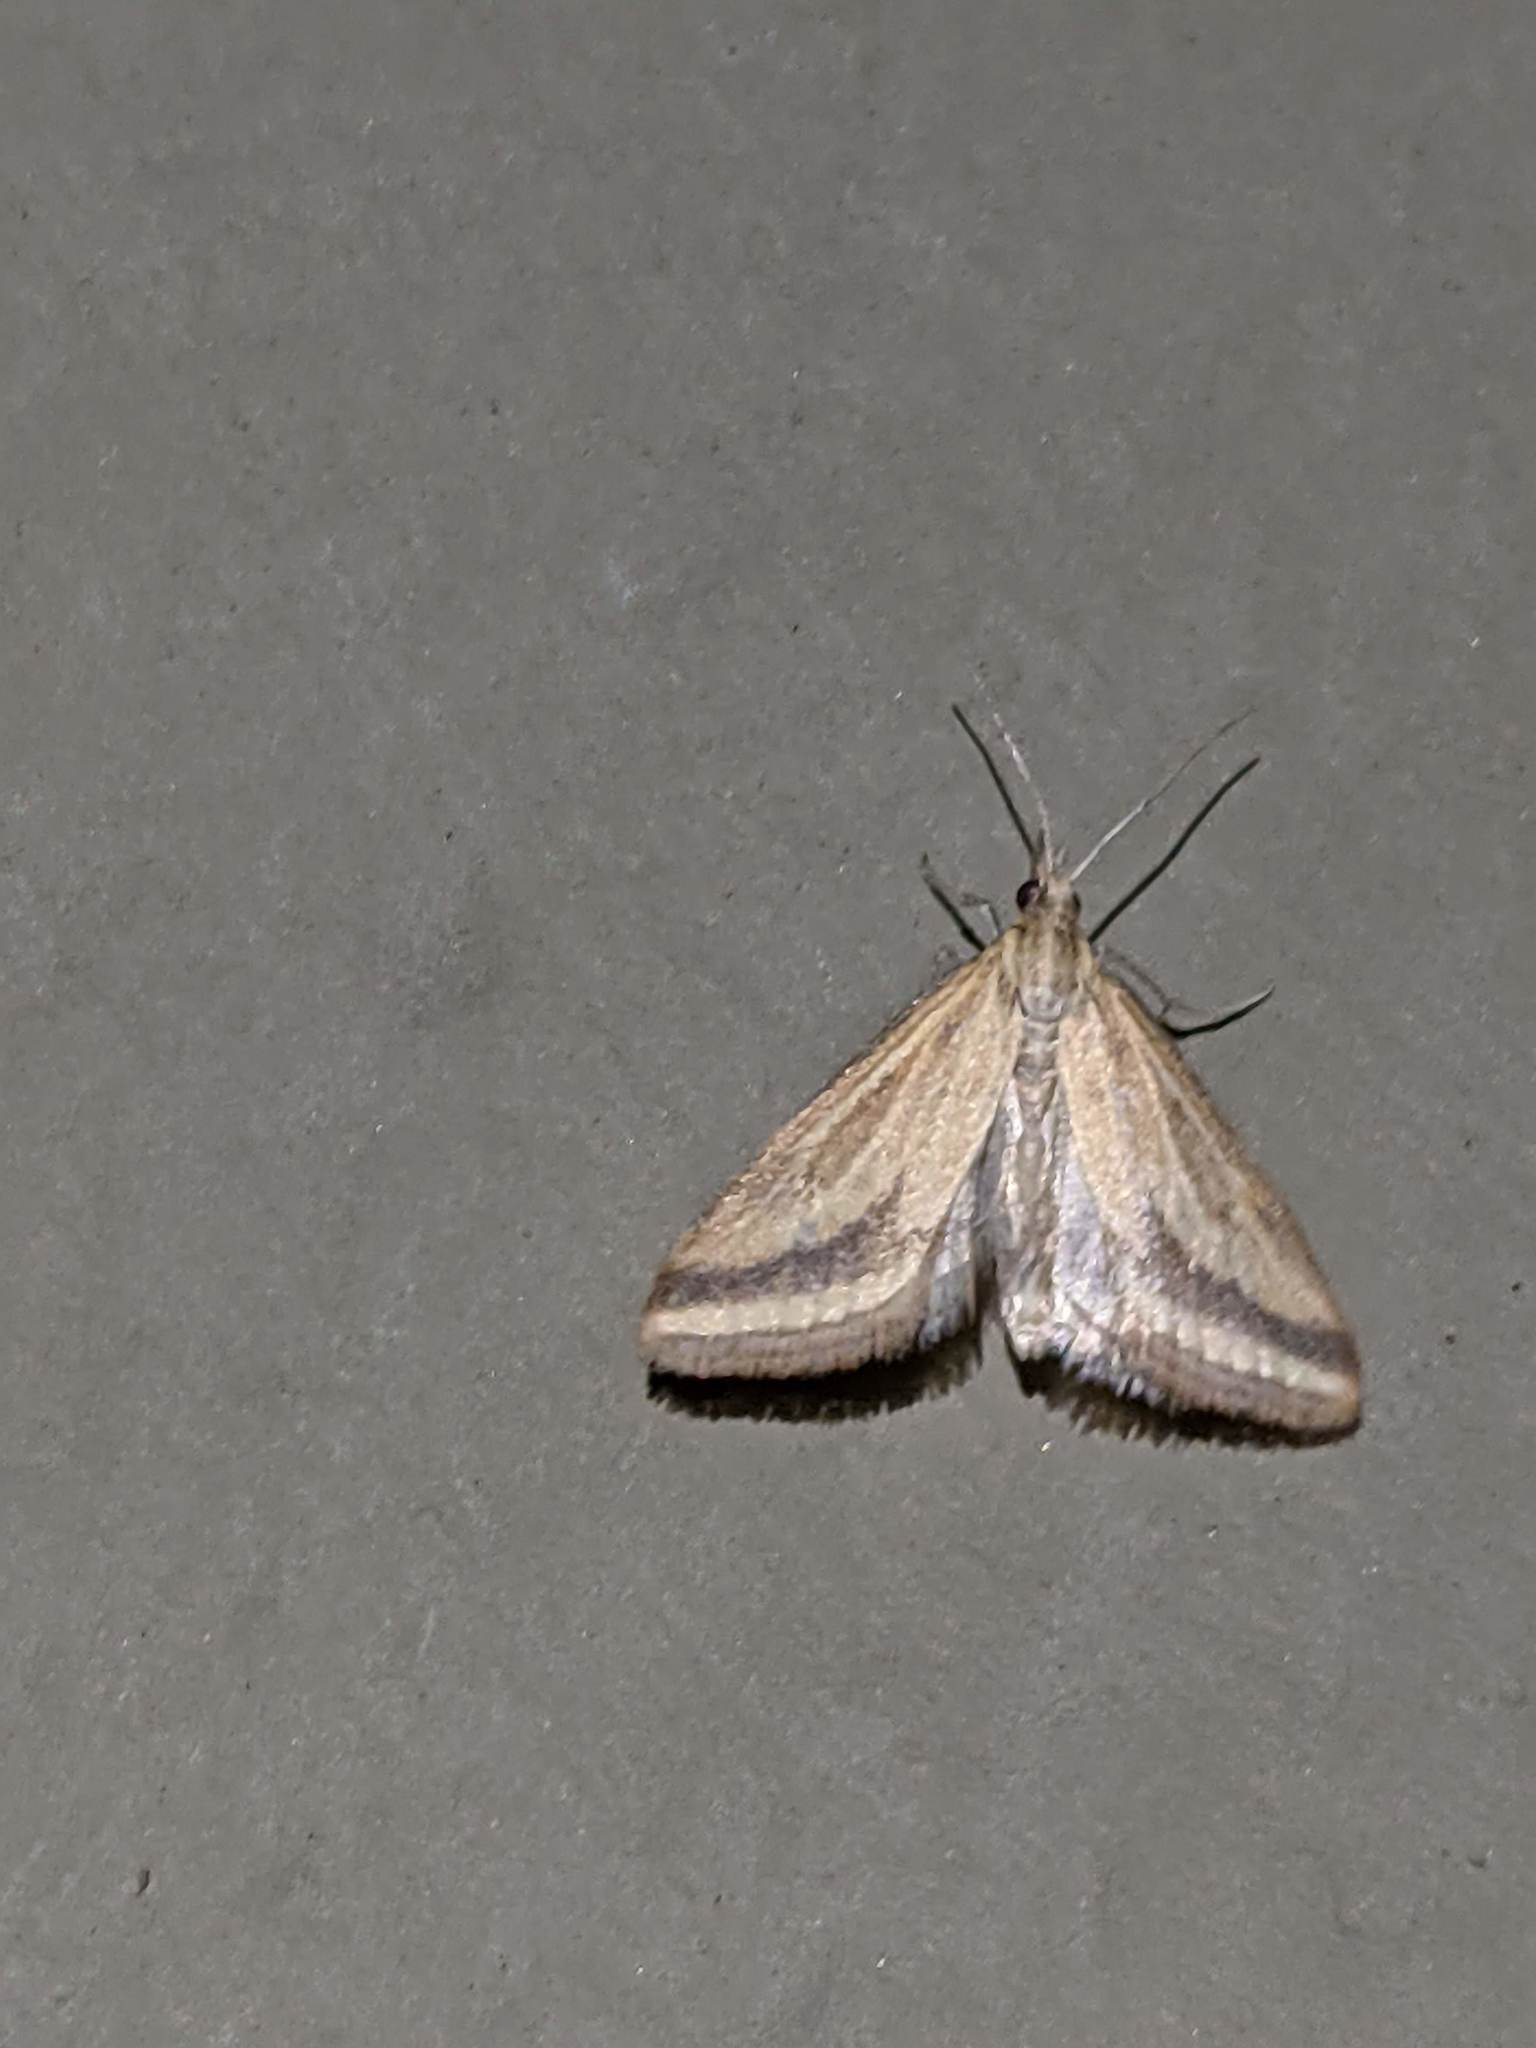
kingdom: Animalia
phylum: Arthropoda
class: Insecta
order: Lepidoptera
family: Crambidae
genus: Microtheoris
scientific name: Microtheoris ophionalis
